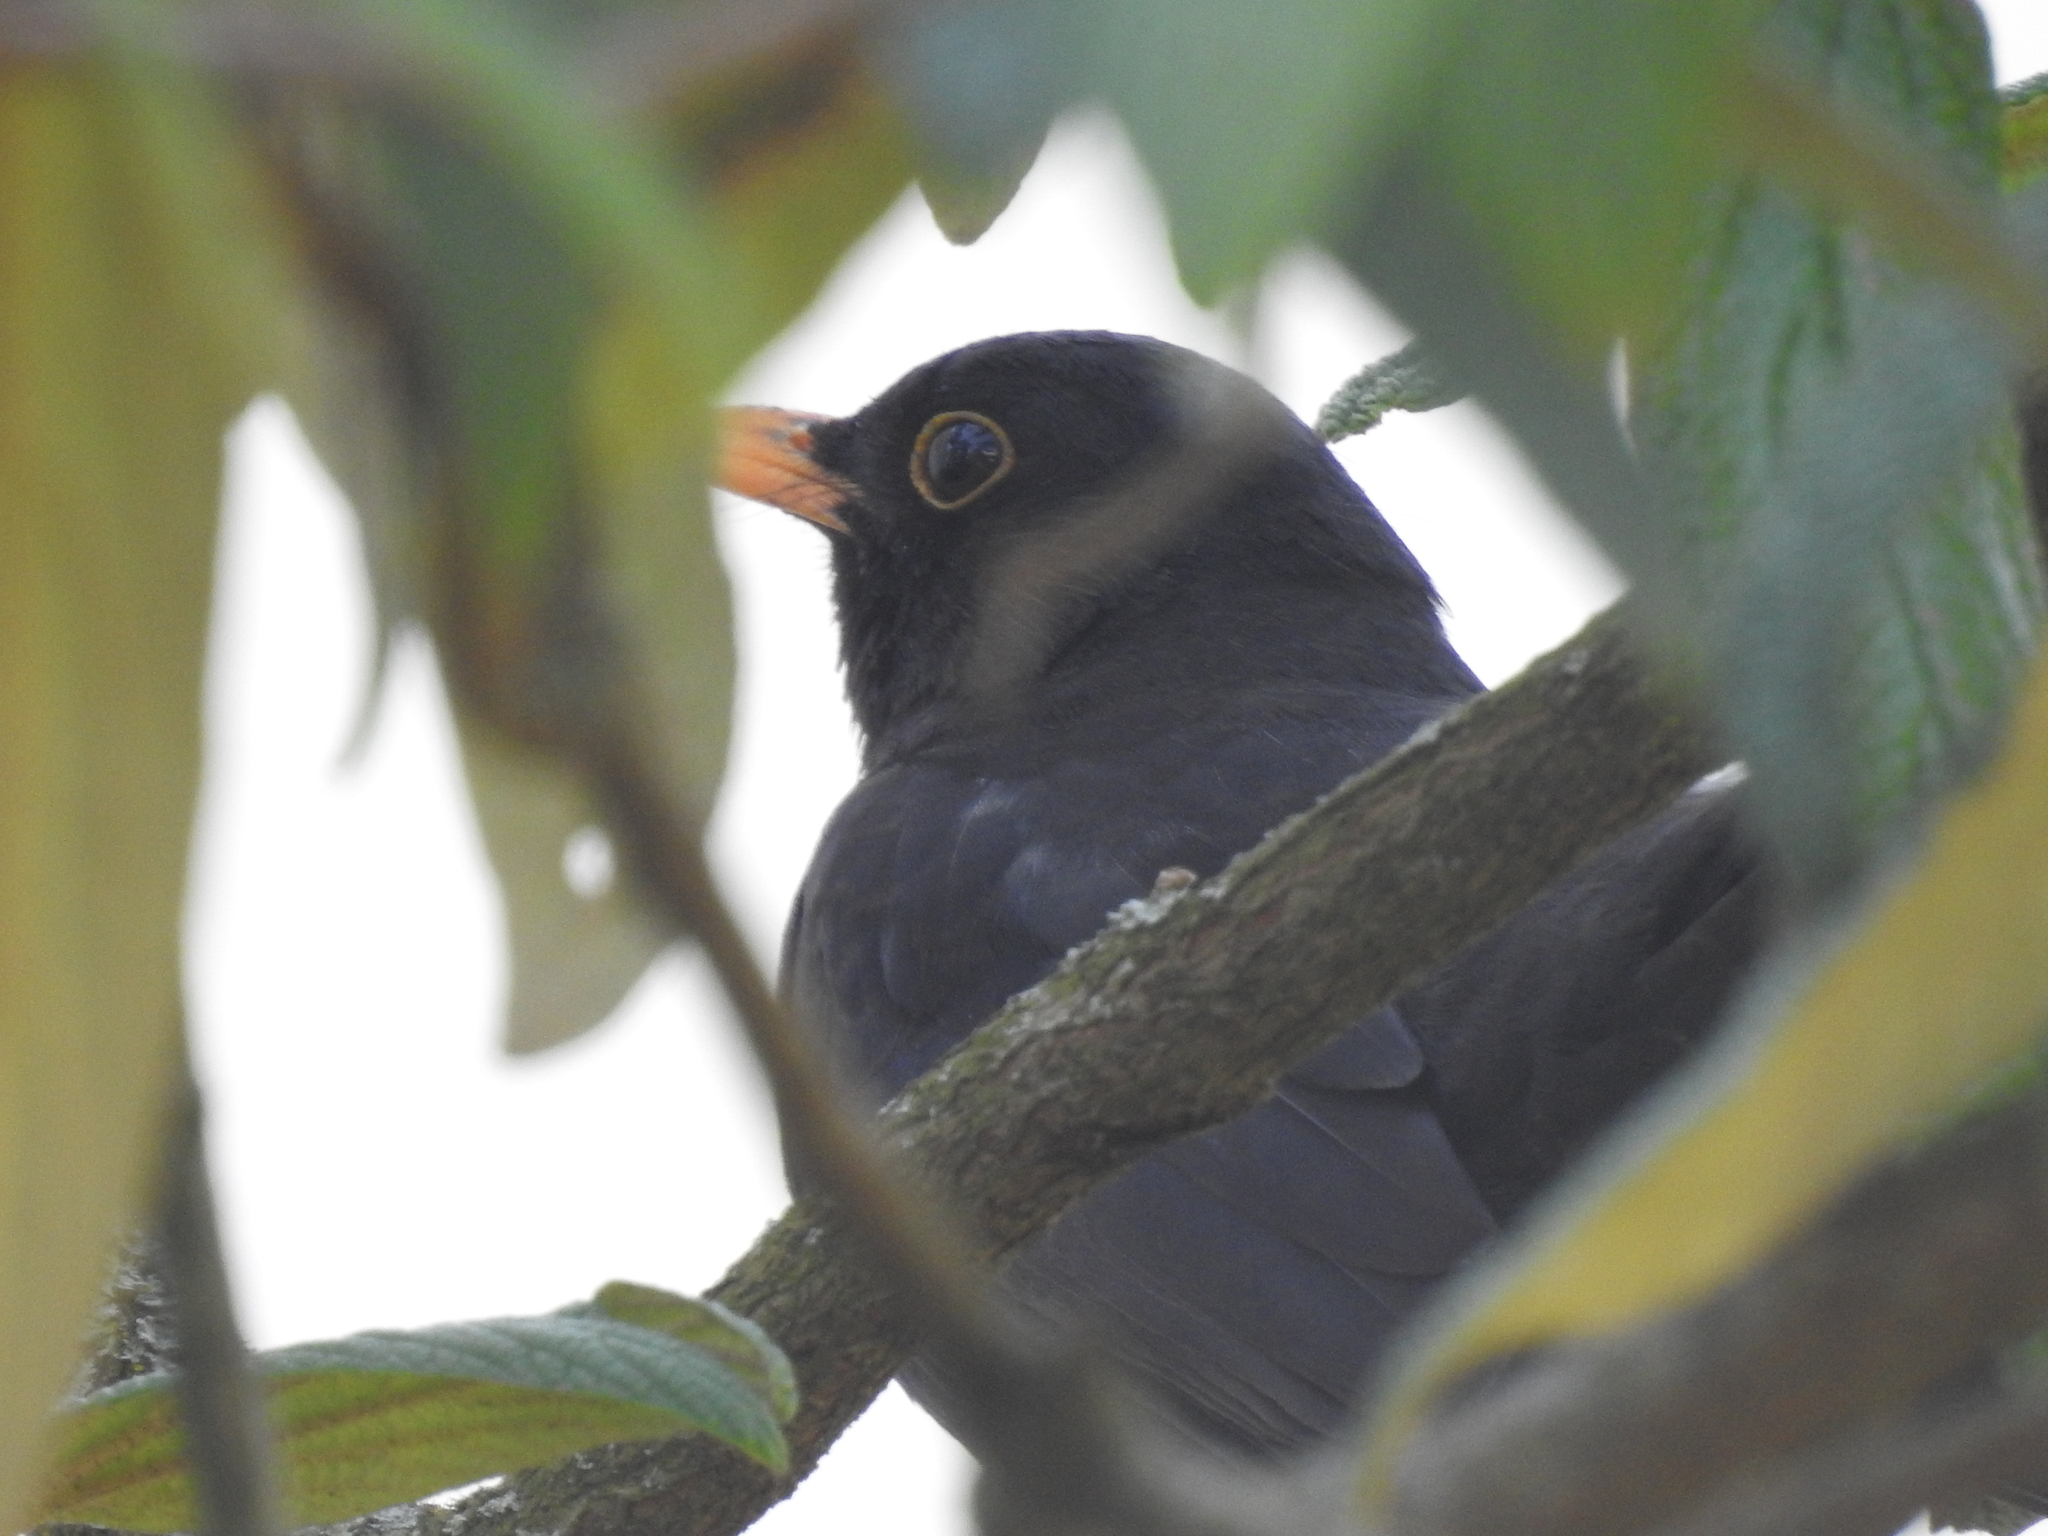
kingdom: Animalia
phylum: Chordata
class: Aves
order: Passeriformes
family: Turdidae
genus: Turdus
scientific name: Turdus merula
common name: Common blackbird
